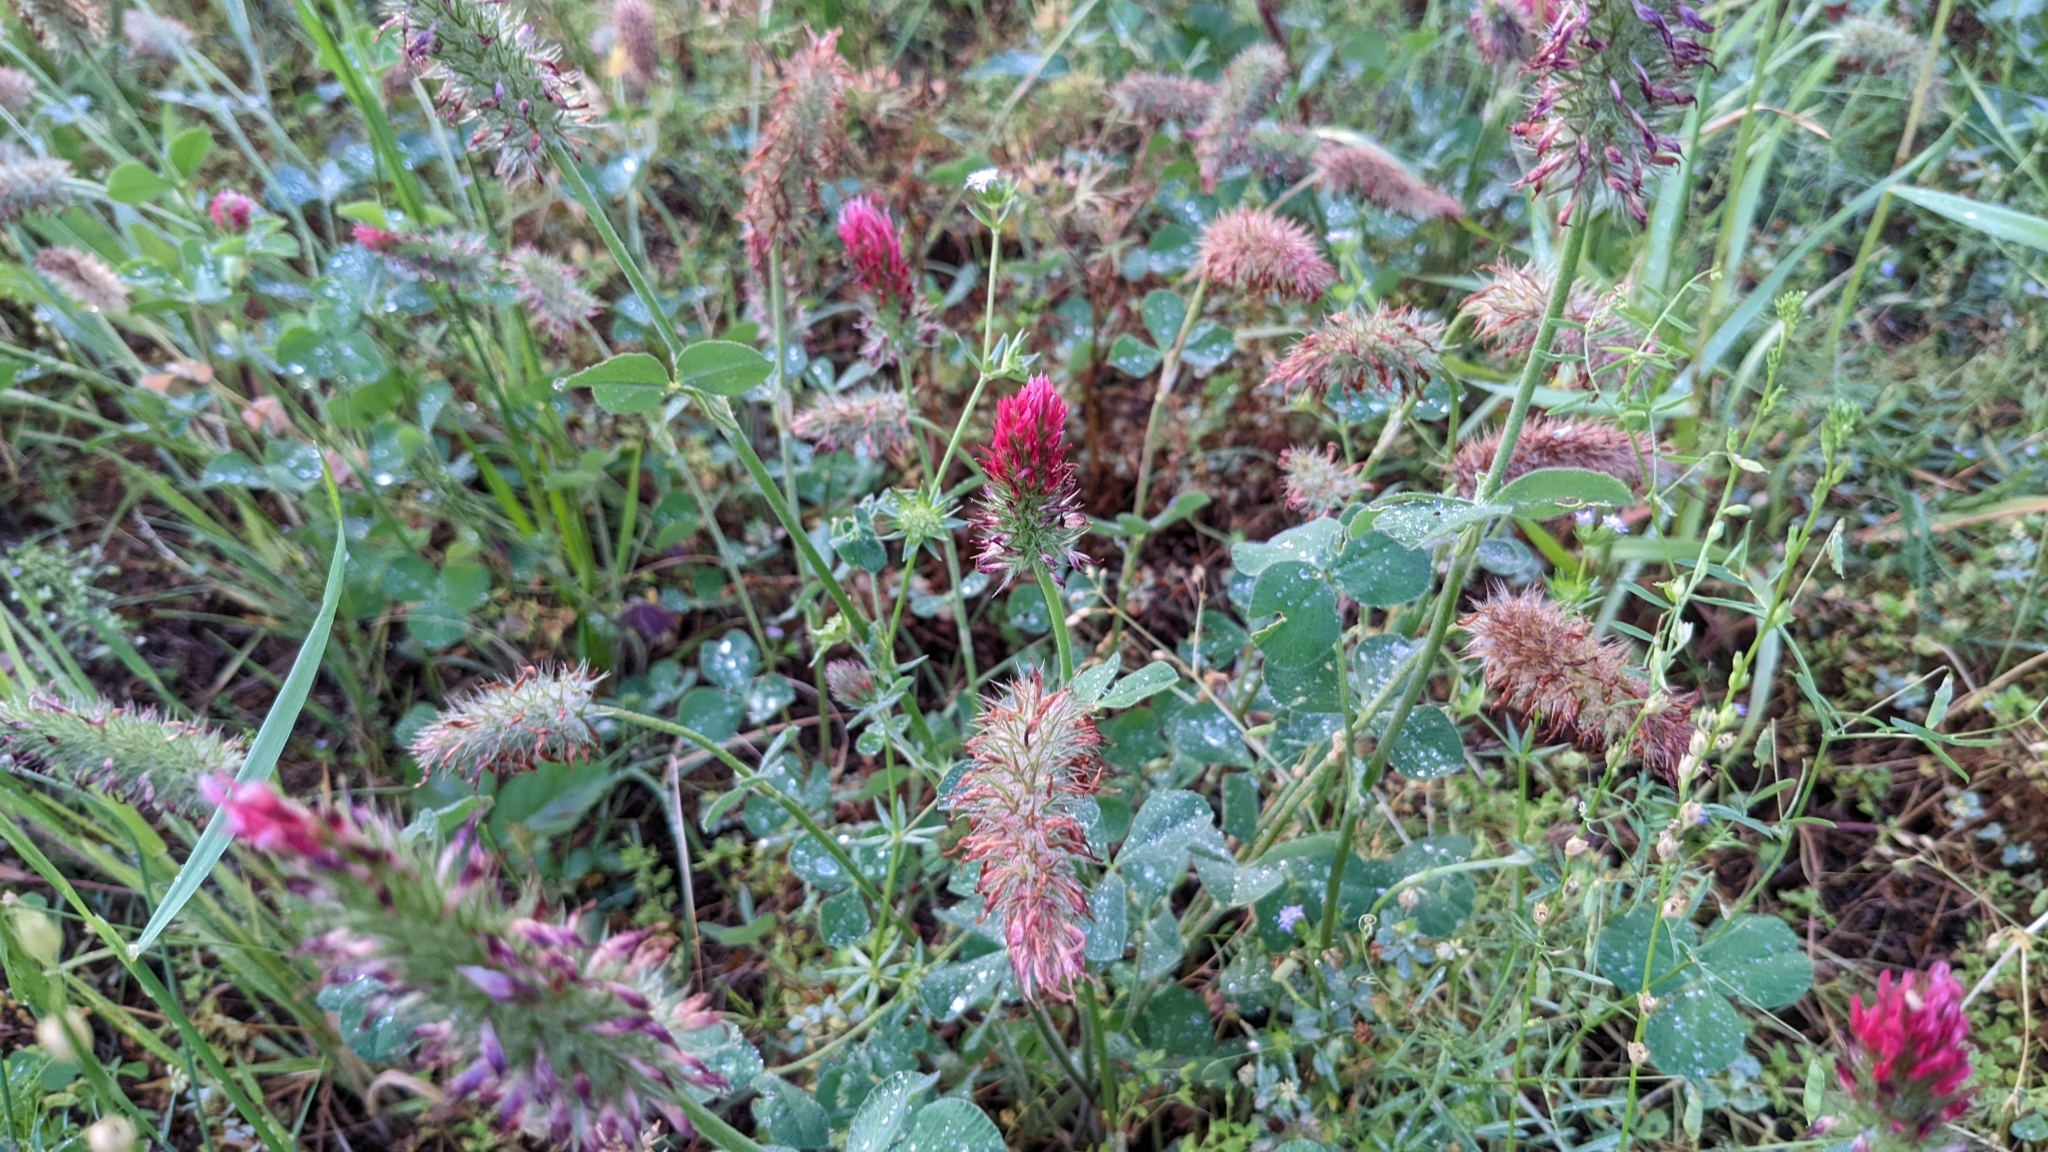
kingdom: Plantae
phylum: Tracheophyta
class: Magnoliopsida
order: Fabales
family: Fabaceae
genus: Trifolium
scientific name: Trifolium incarnatum
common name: Crimson clover
